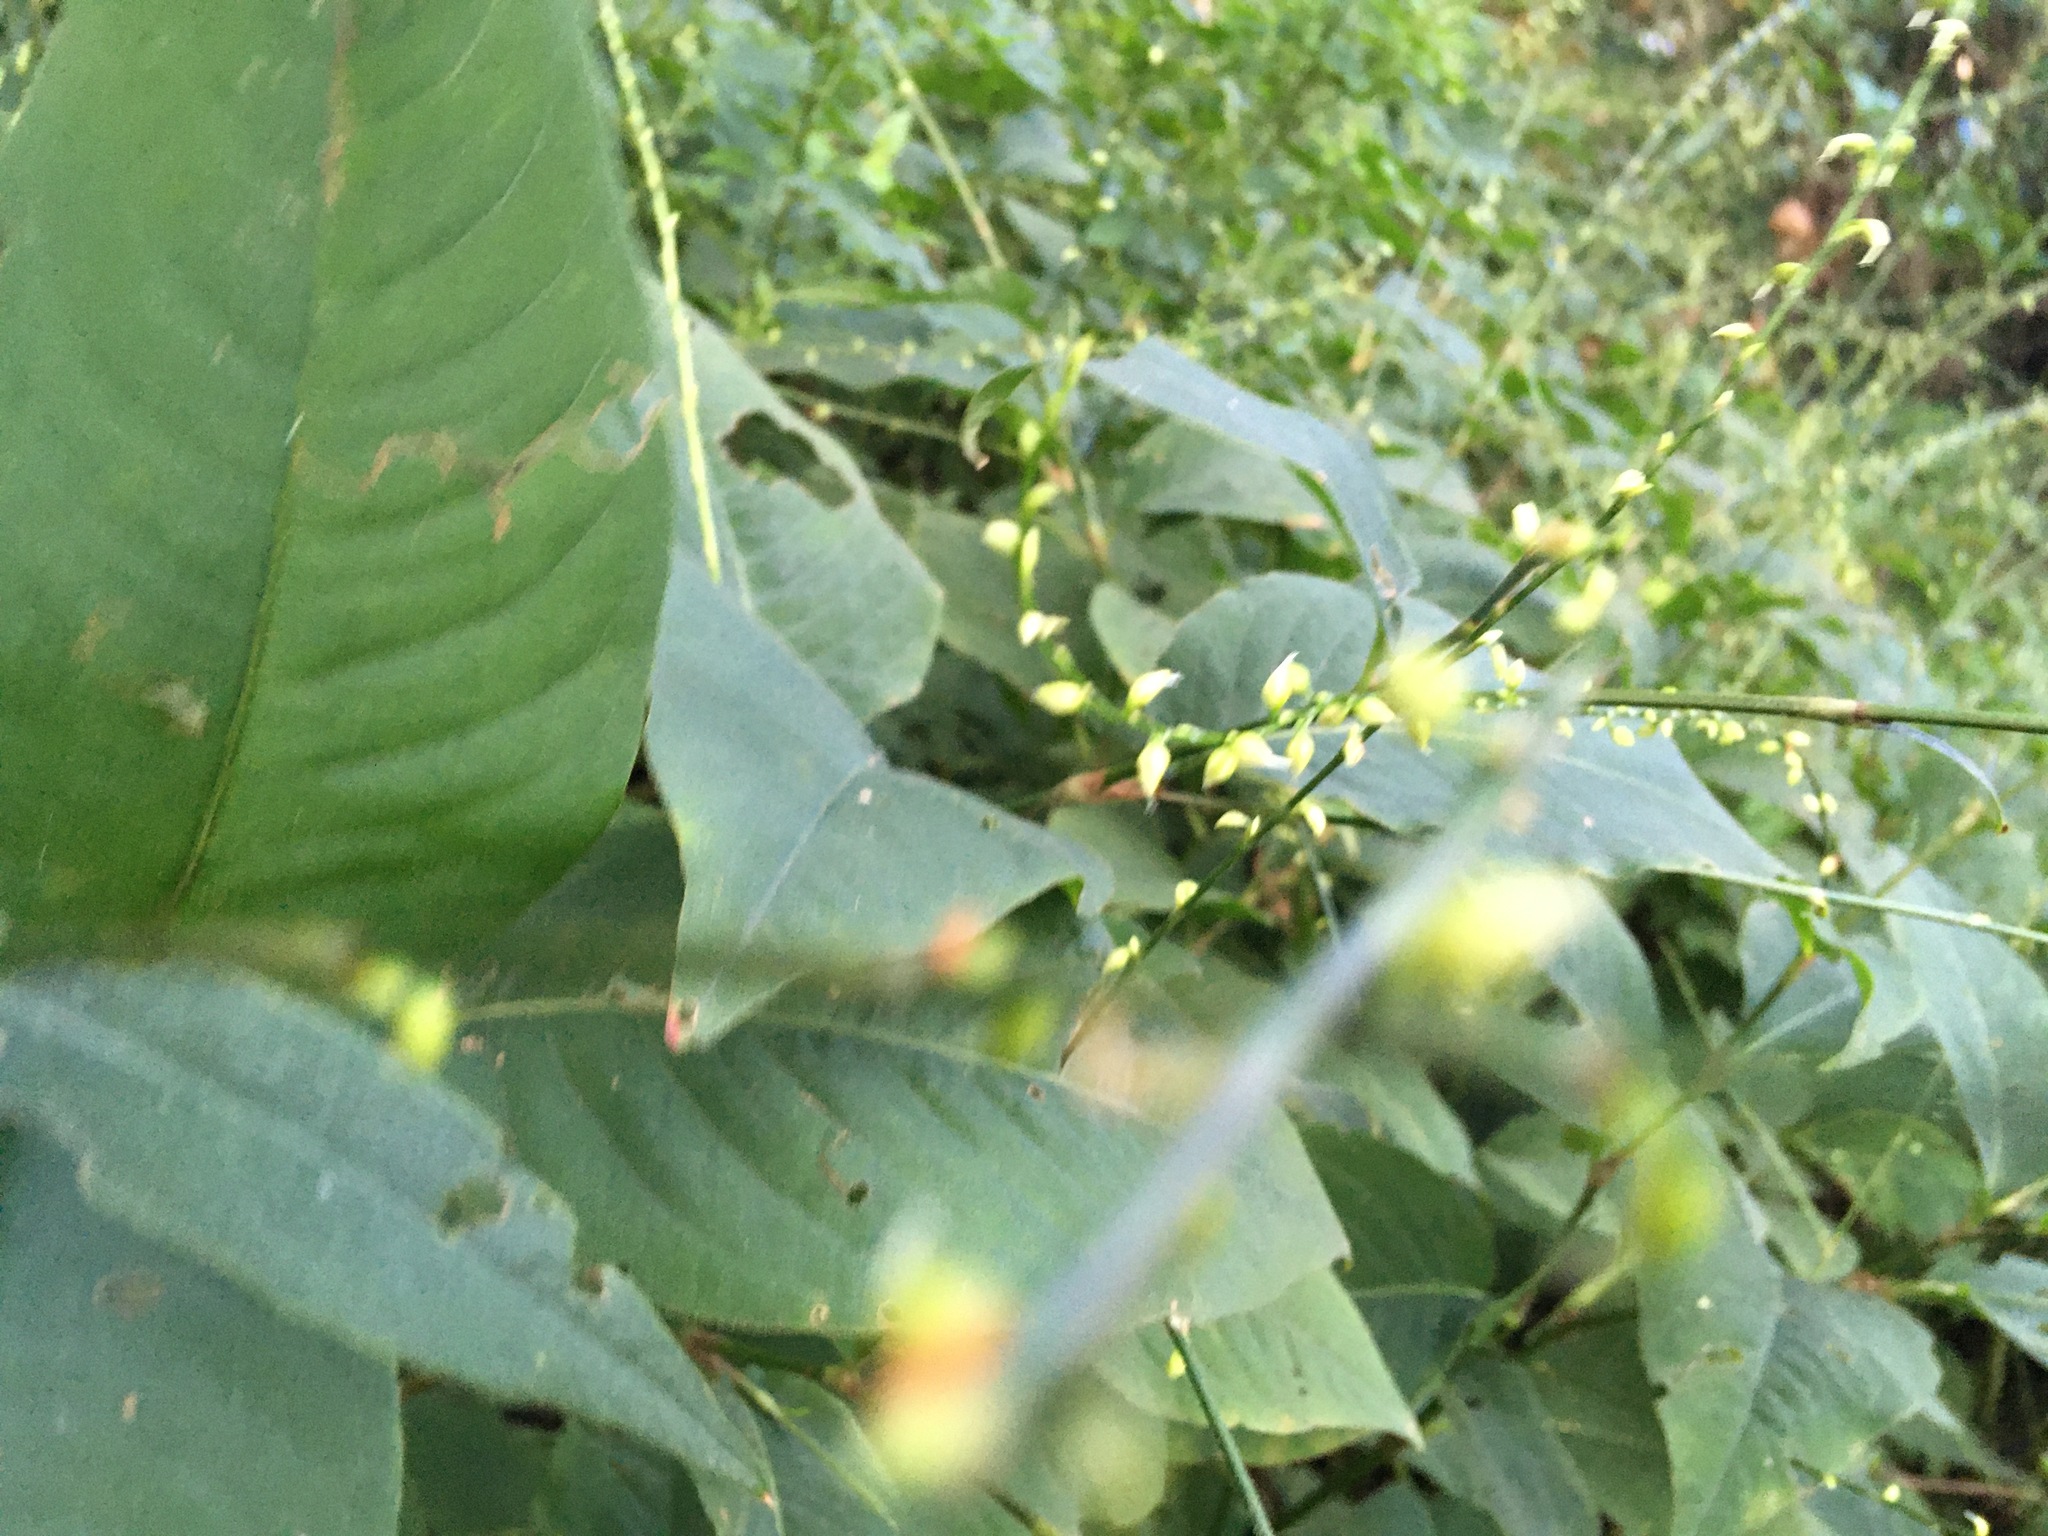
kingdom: Plantae
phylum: Tracheophyta
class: Magnoliopsida
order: Caryophyllales
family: Polygonaceae
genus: Persicaria
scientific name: Persicaria virginiana
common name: Jumpseed
